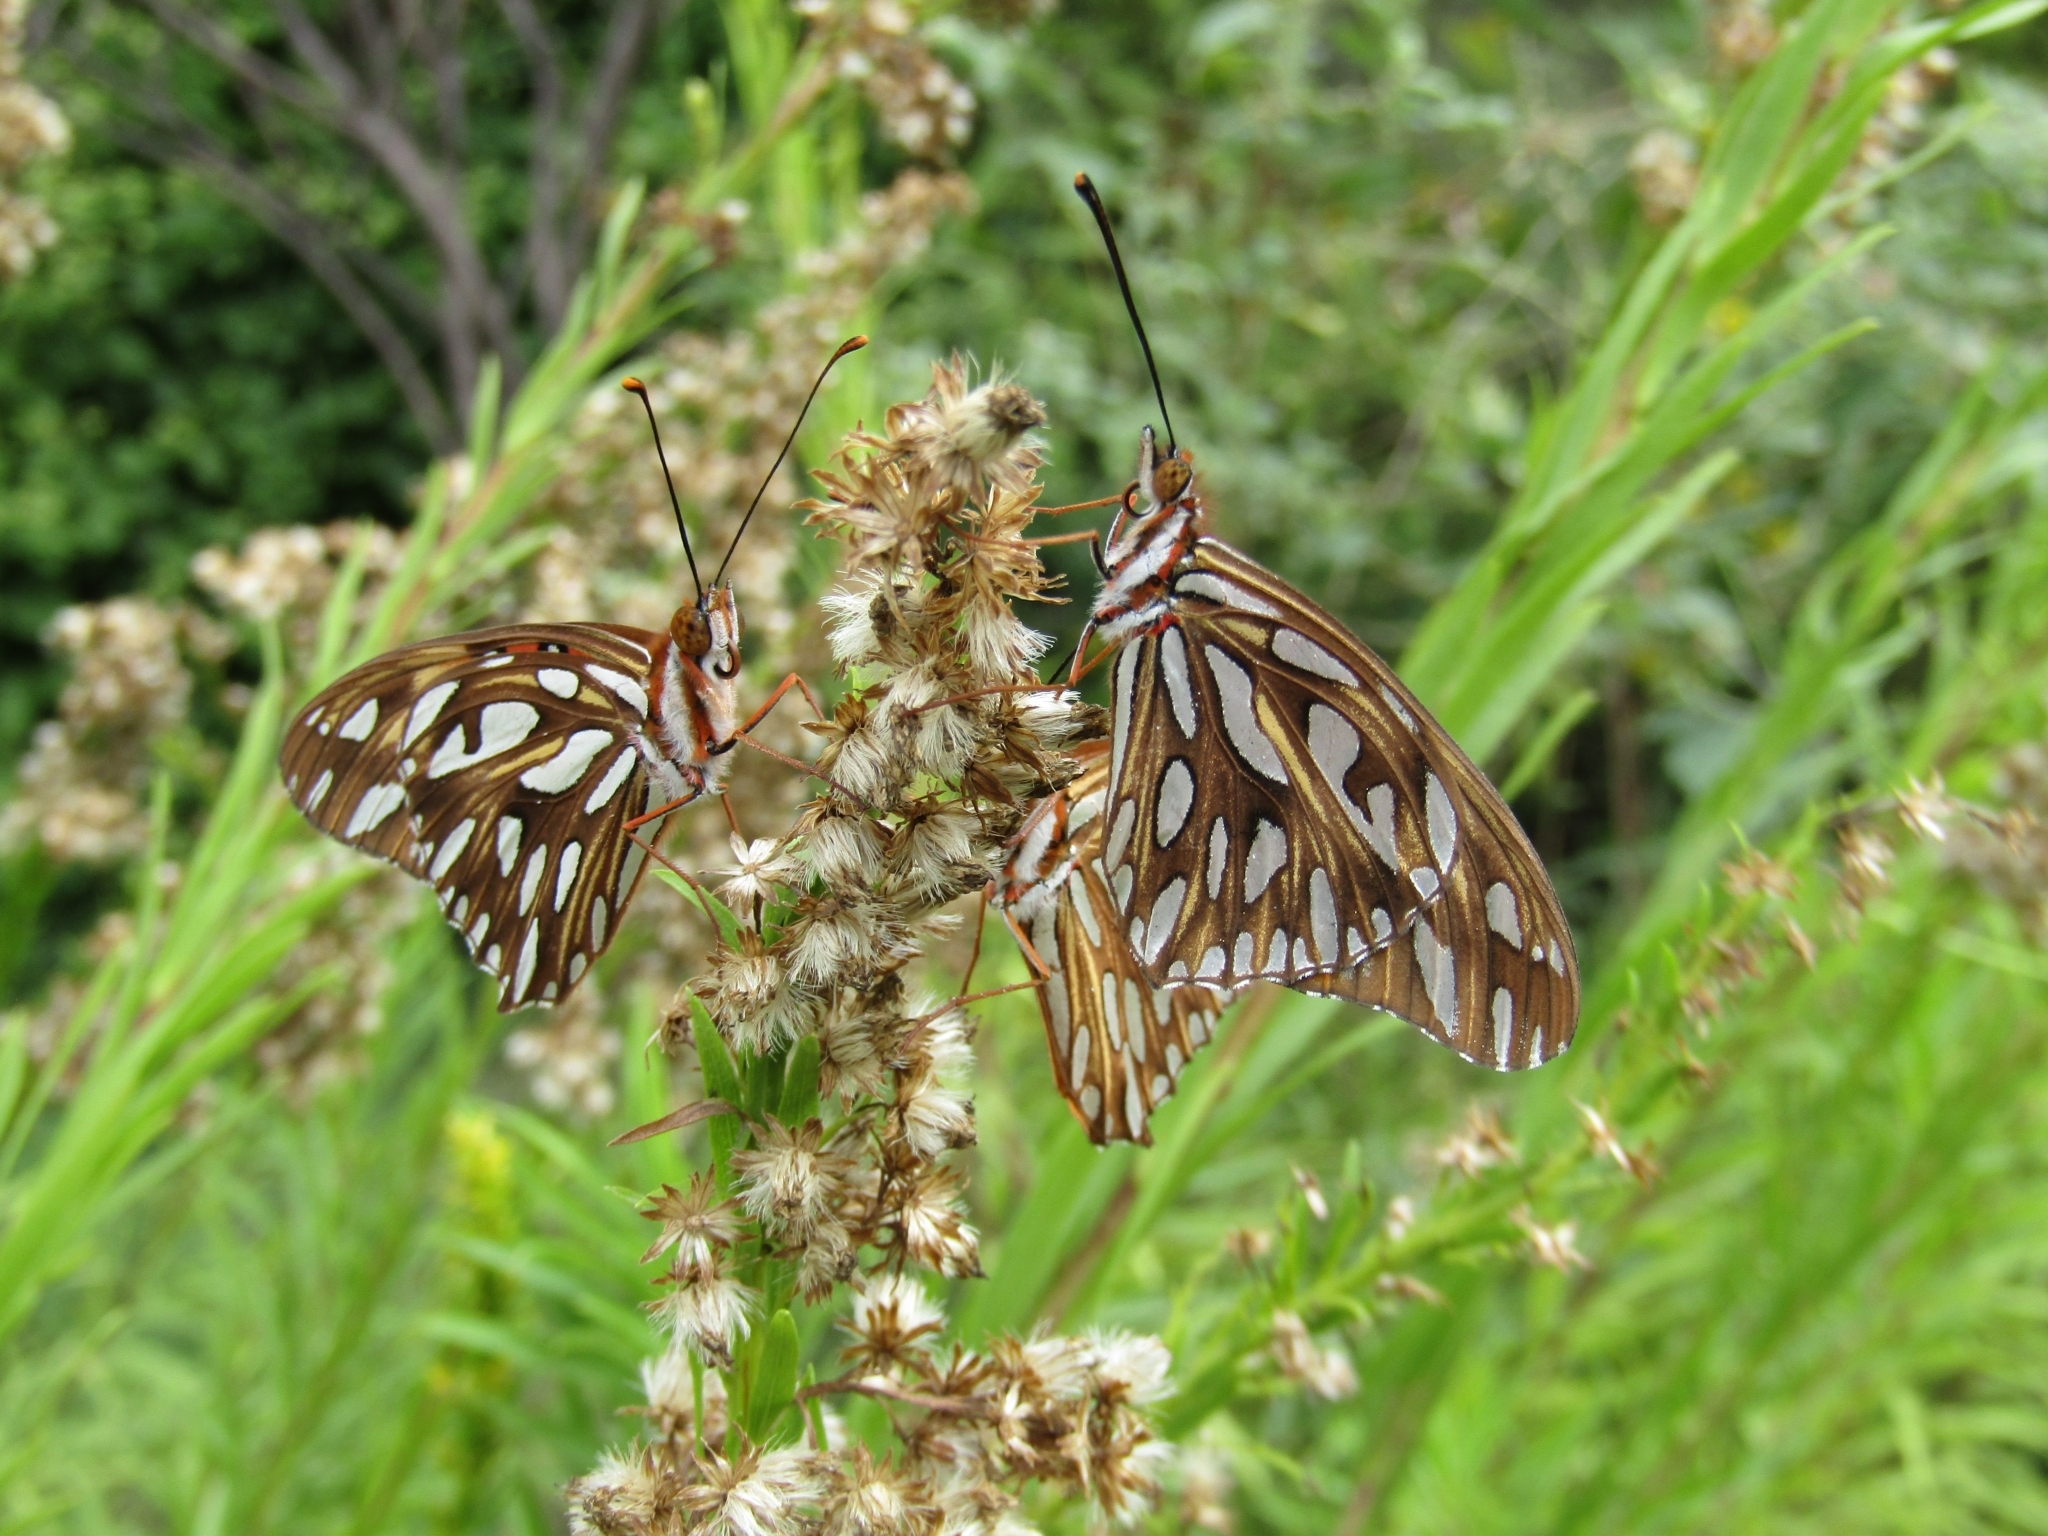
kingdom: Animalia
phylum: Arthropoda
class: Insecta
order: Lepidoptera
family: Nymphalidae
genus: Dione
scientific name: Dione vanillae
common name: Gulf fritillary
